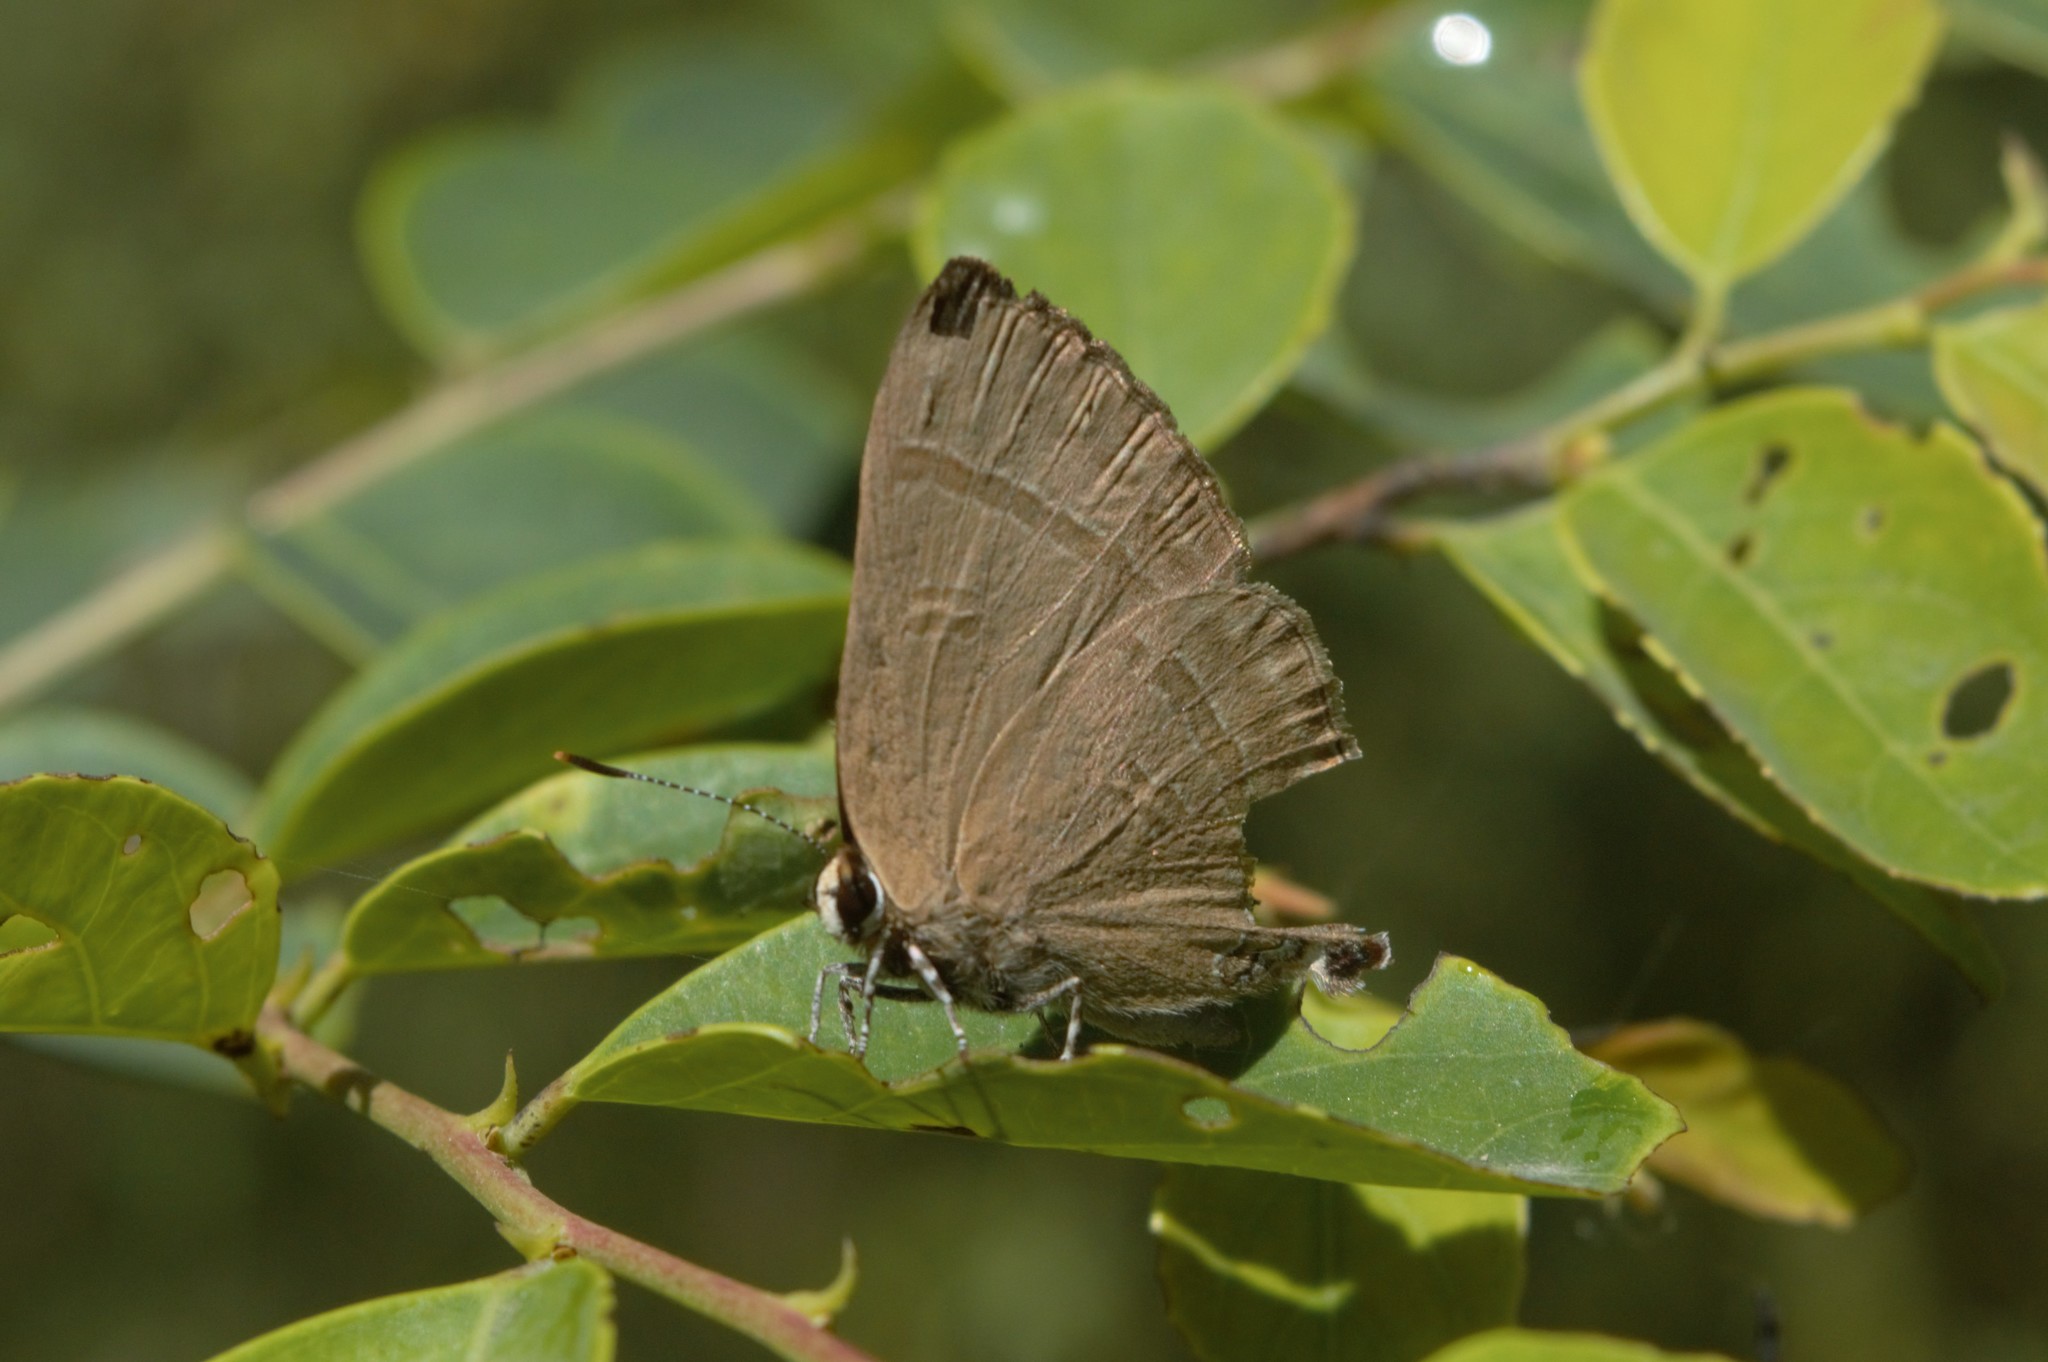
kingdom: Animalia
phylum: Arthropoda
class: Insecta
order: Lepidoptera
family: Lycaenidae
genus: Rapala
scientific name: Rapala manea
